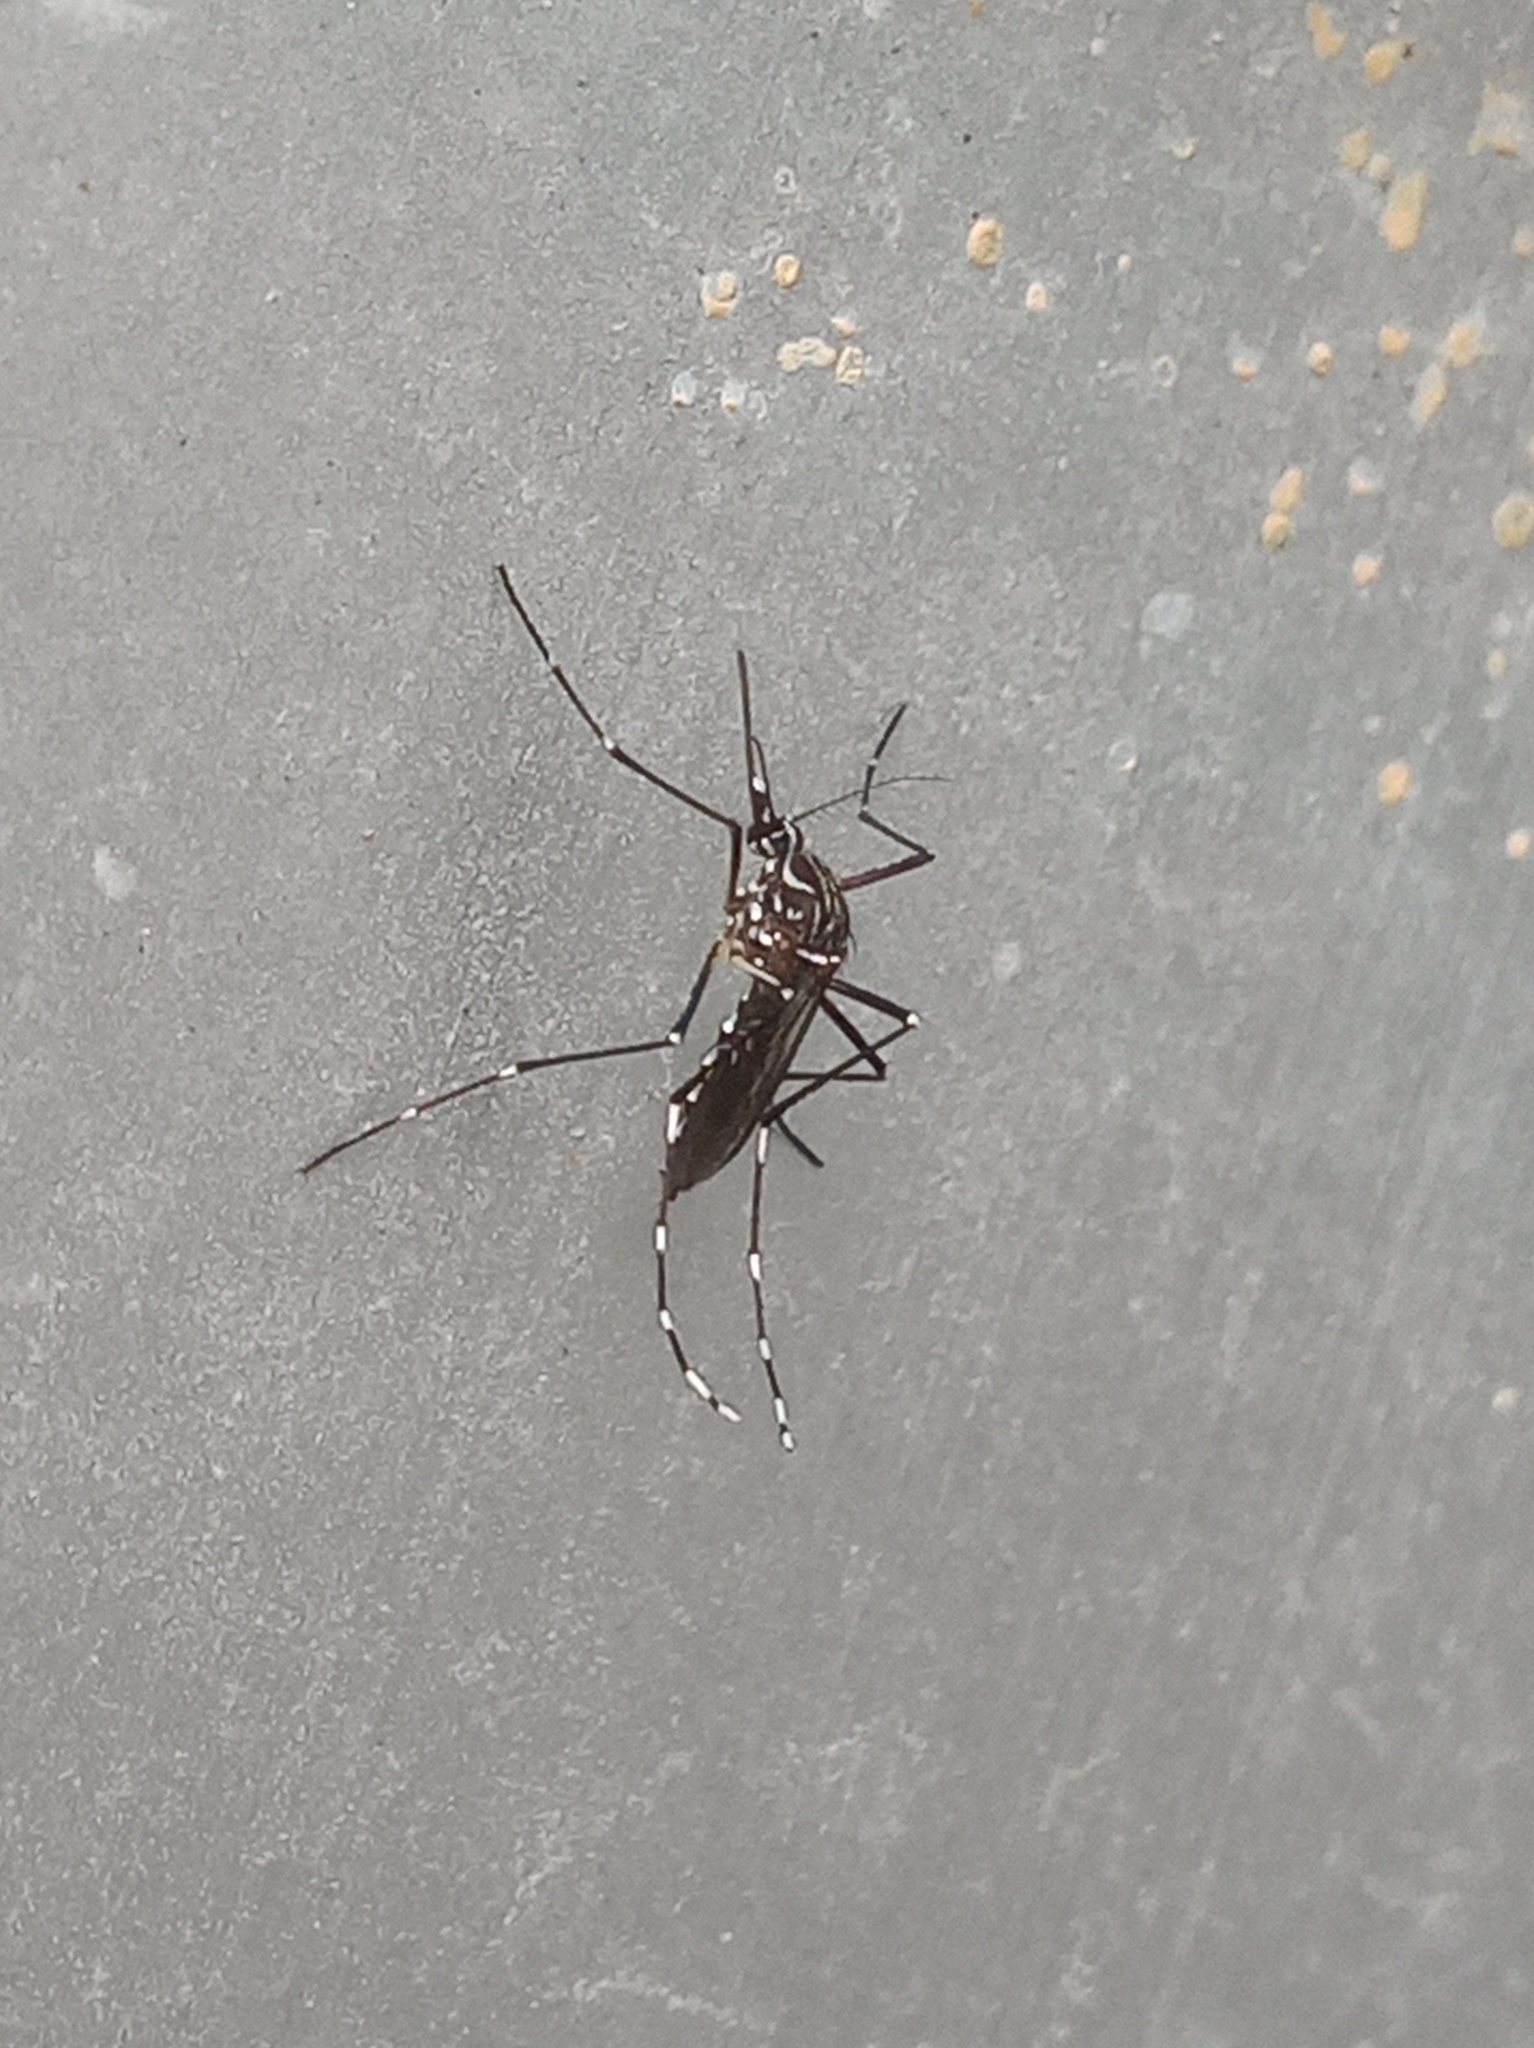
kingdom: Animalia
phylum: Arthropoda
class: Insecta
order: Diptera
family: Culicidae
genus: Aedes
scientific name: Aedes aegypti
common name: Yellow fever mosquito
